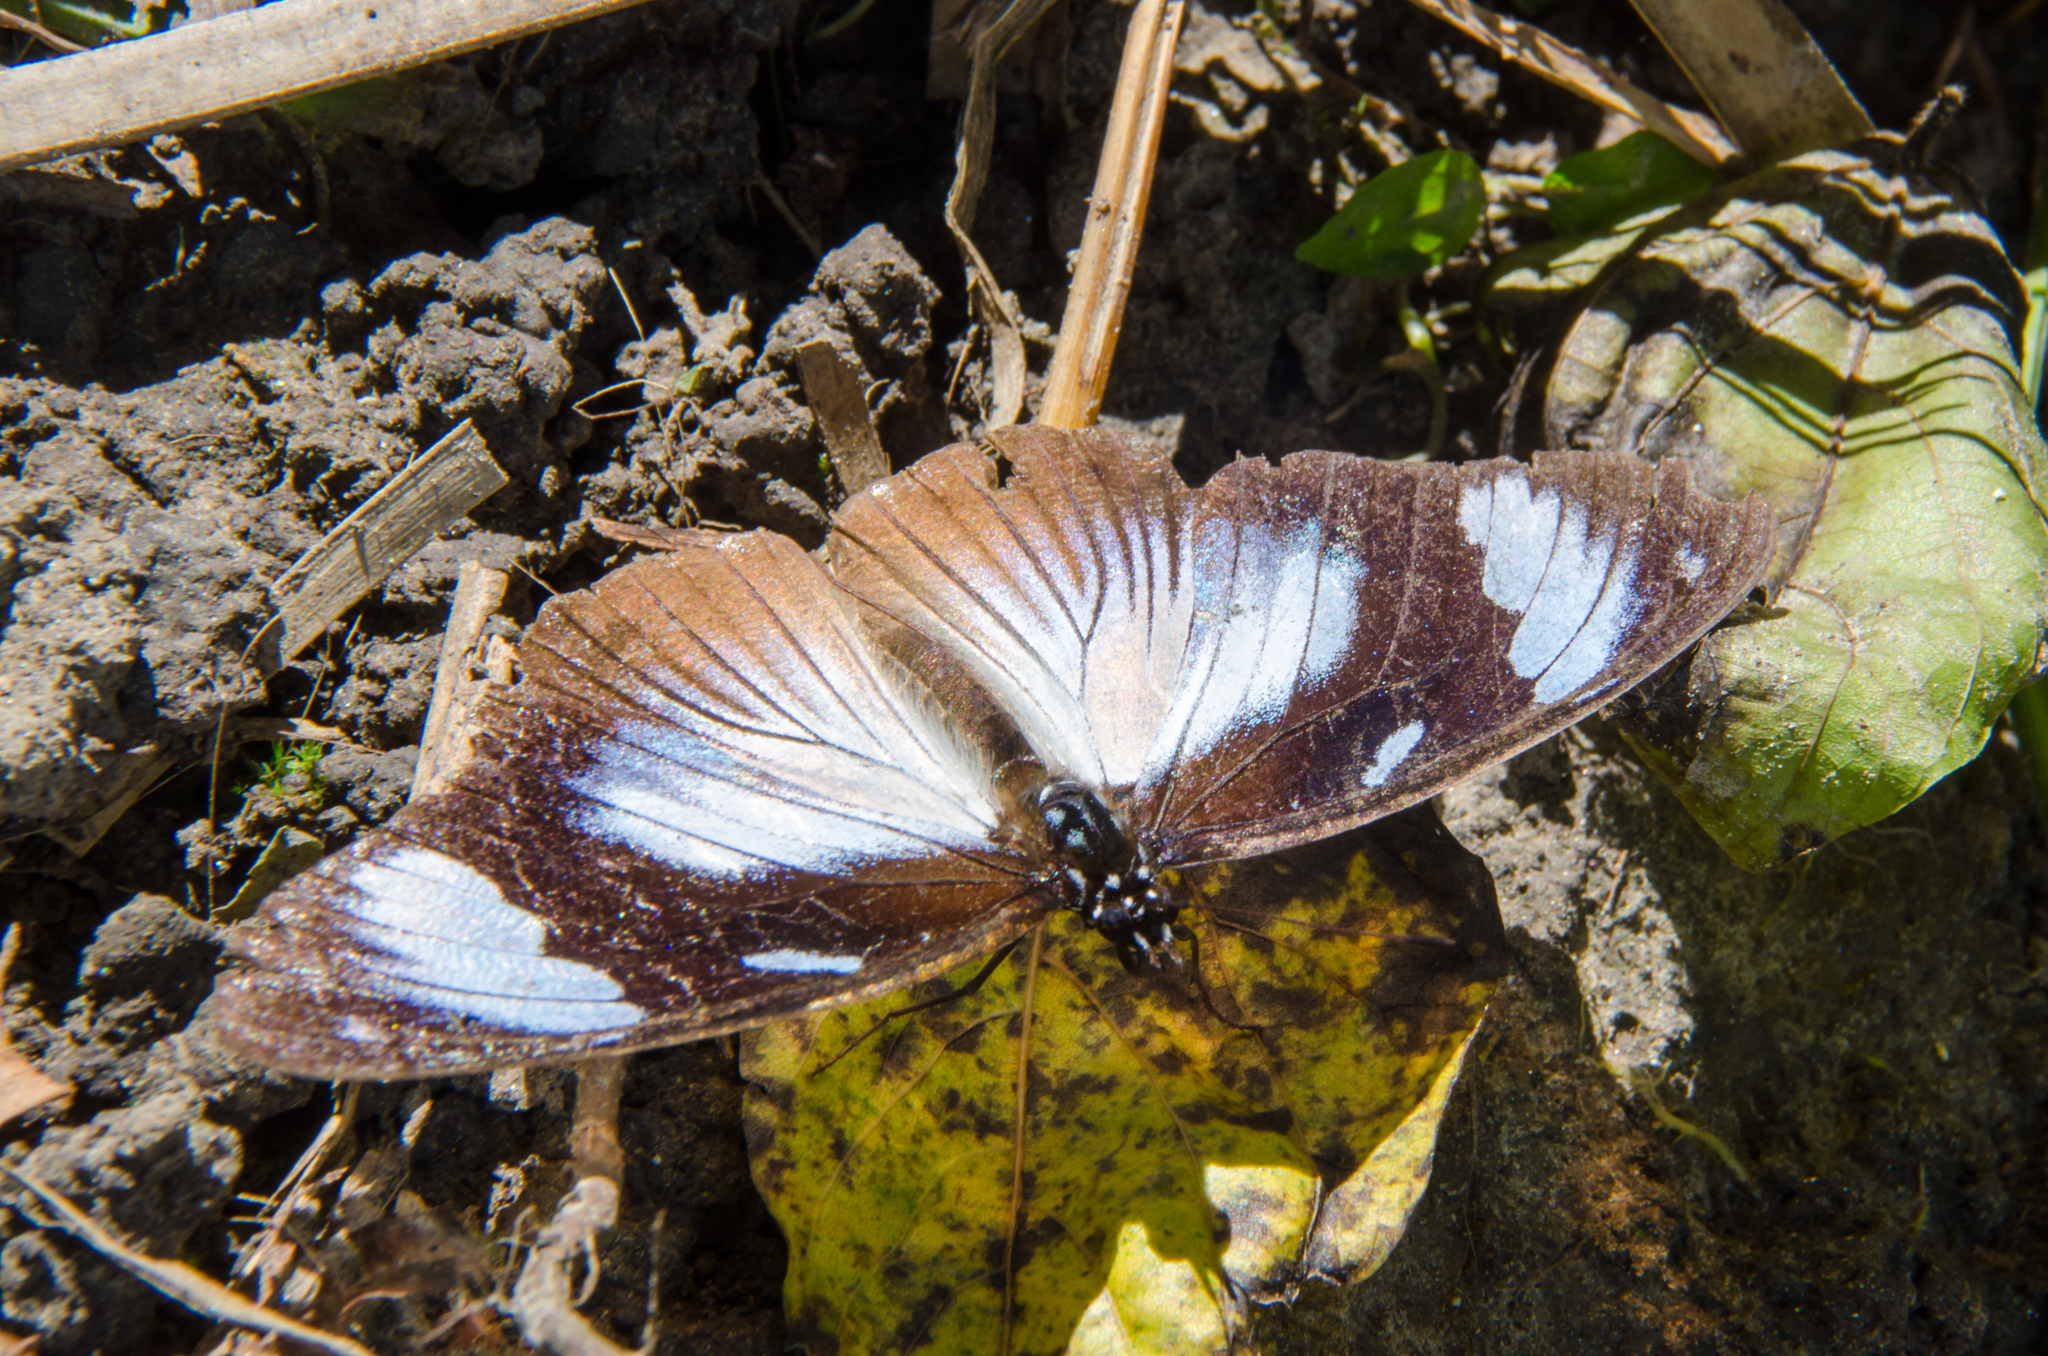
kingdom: Animalia
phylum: Arthropoda
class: Insecta
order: Lepidoptera
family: Nymphalidae
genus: Hypolimnas
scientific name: Hypolimnas dubius
